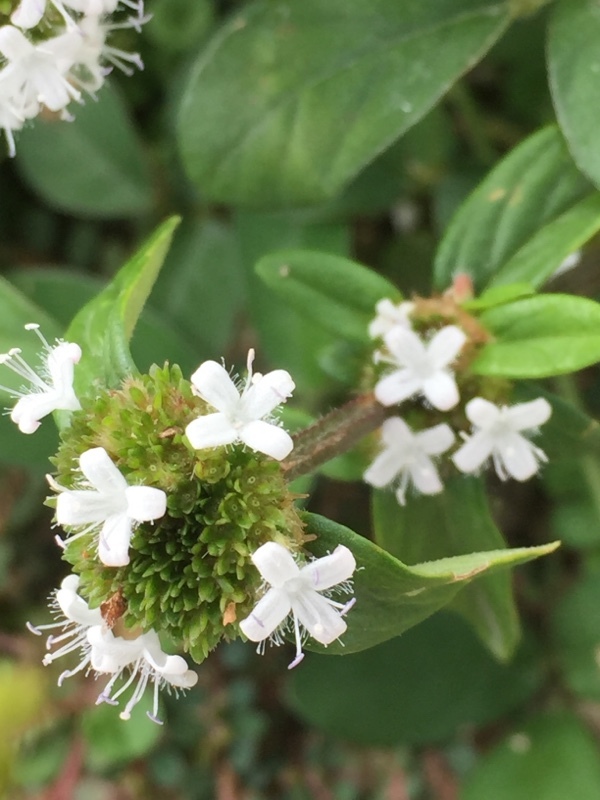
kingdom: Plantae
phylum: Tracheophyta
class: Magnoliopsida
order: Gentianales
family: Rubiaceae
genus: Spermacoce
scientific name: Spermacoce remota
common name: Woodland false buttonweed
